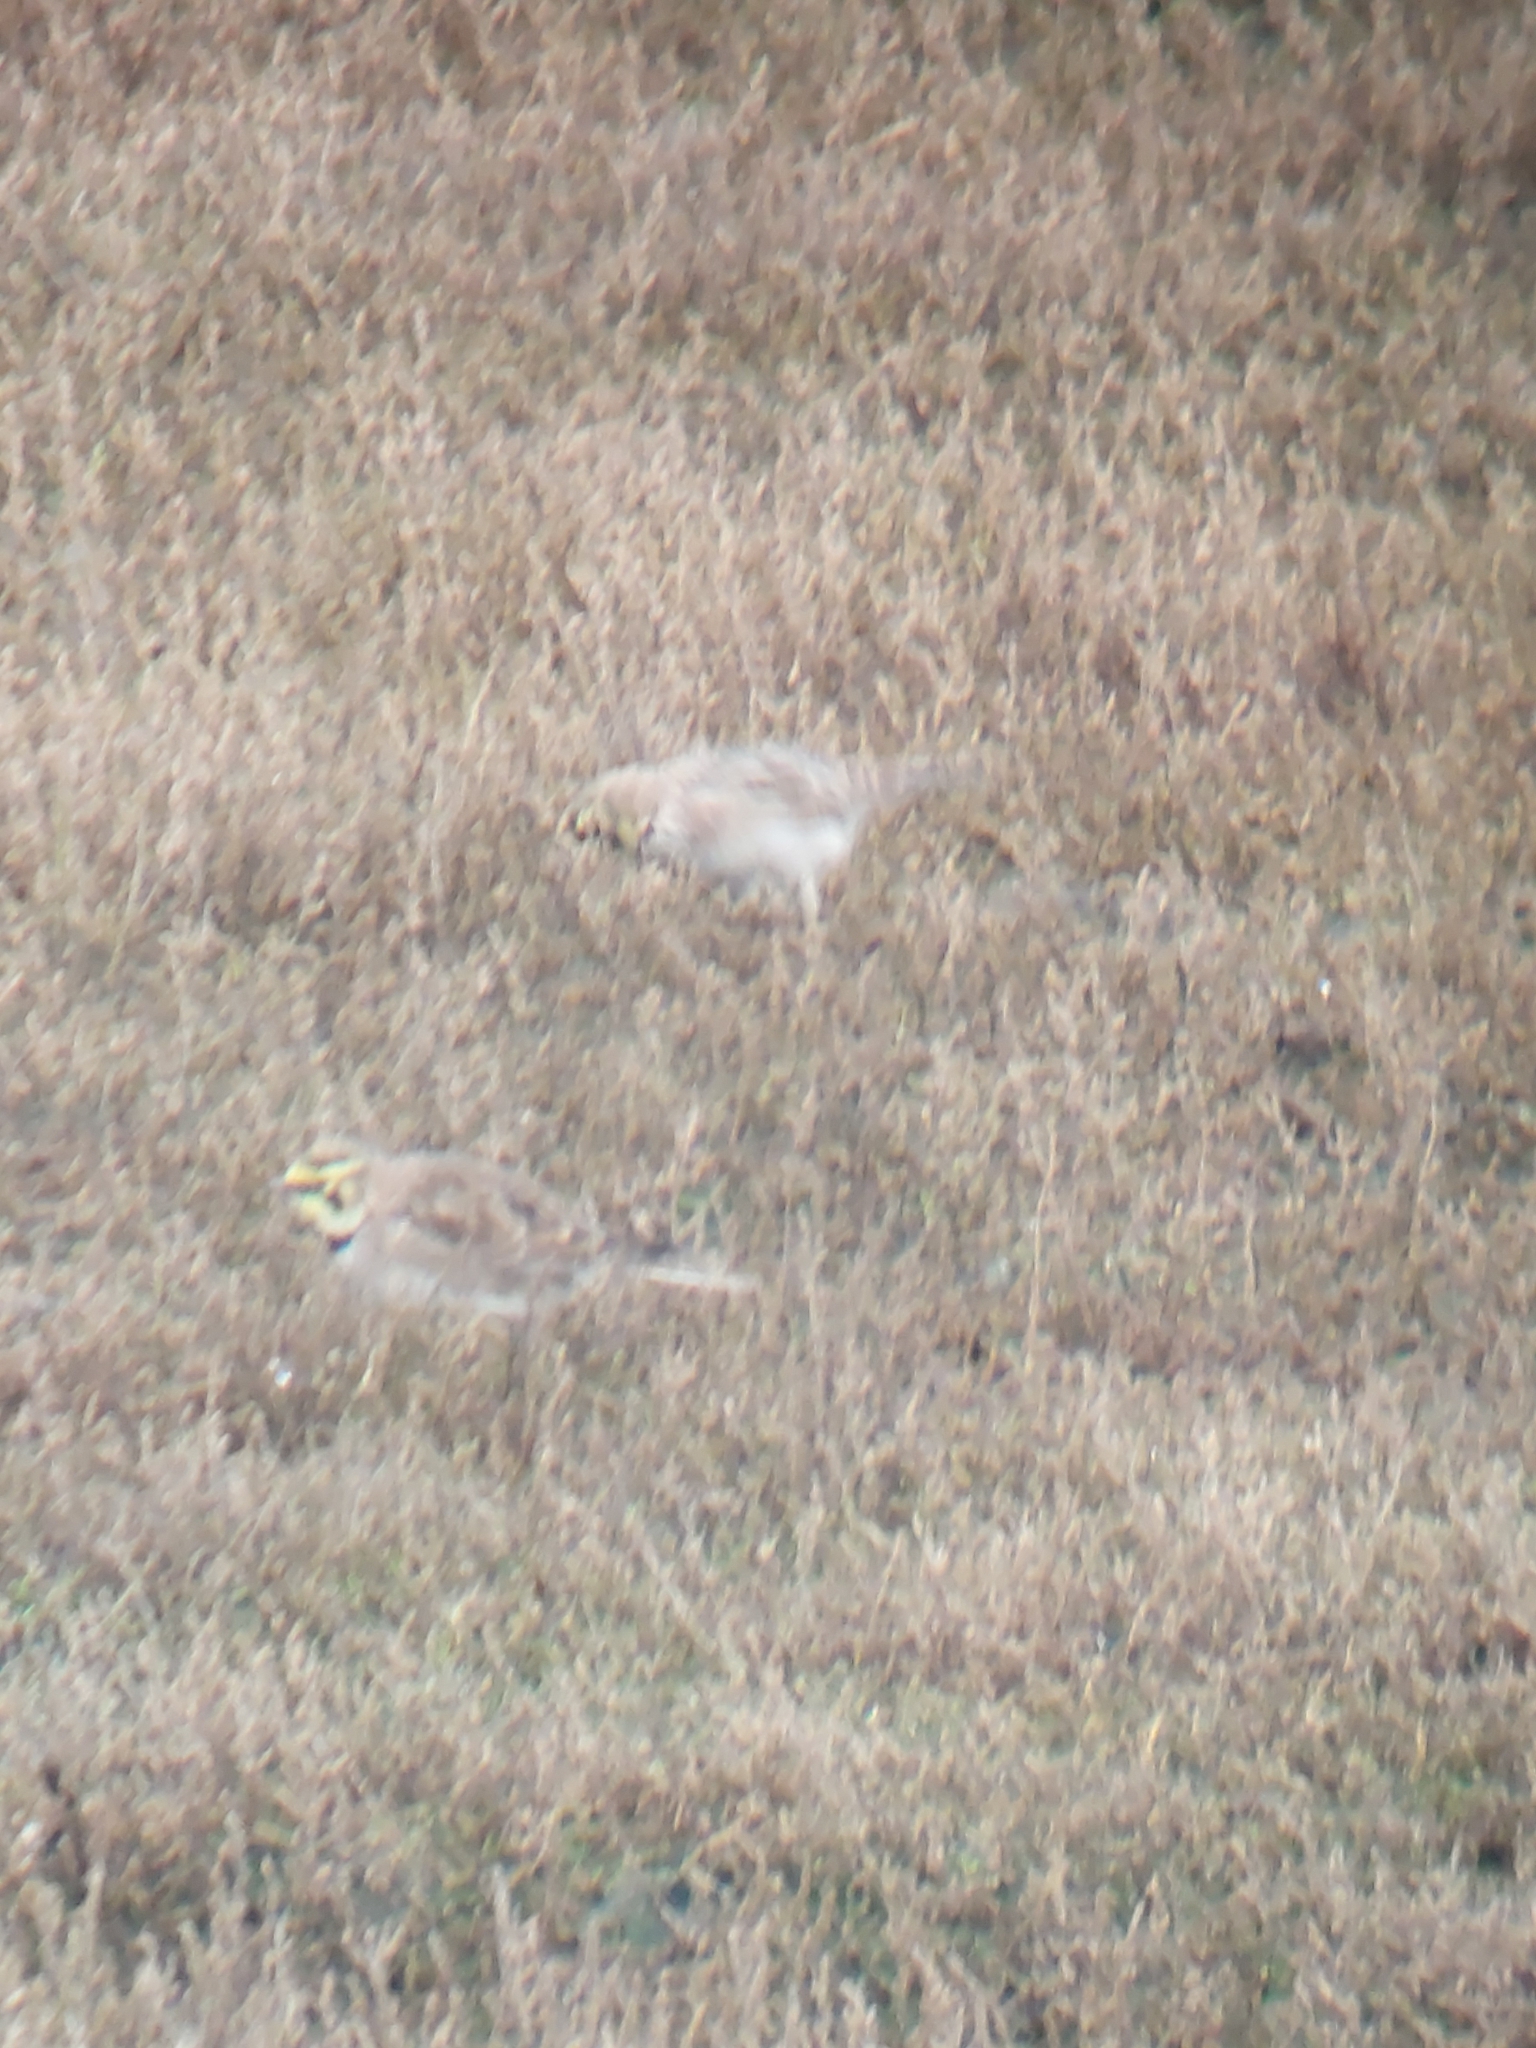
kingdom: Animalia
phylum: Chordata
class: Aves
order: Passeriformes
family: Alaudidae
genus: Eremophila
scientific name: Eremophila alpestris
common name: Horned lark
